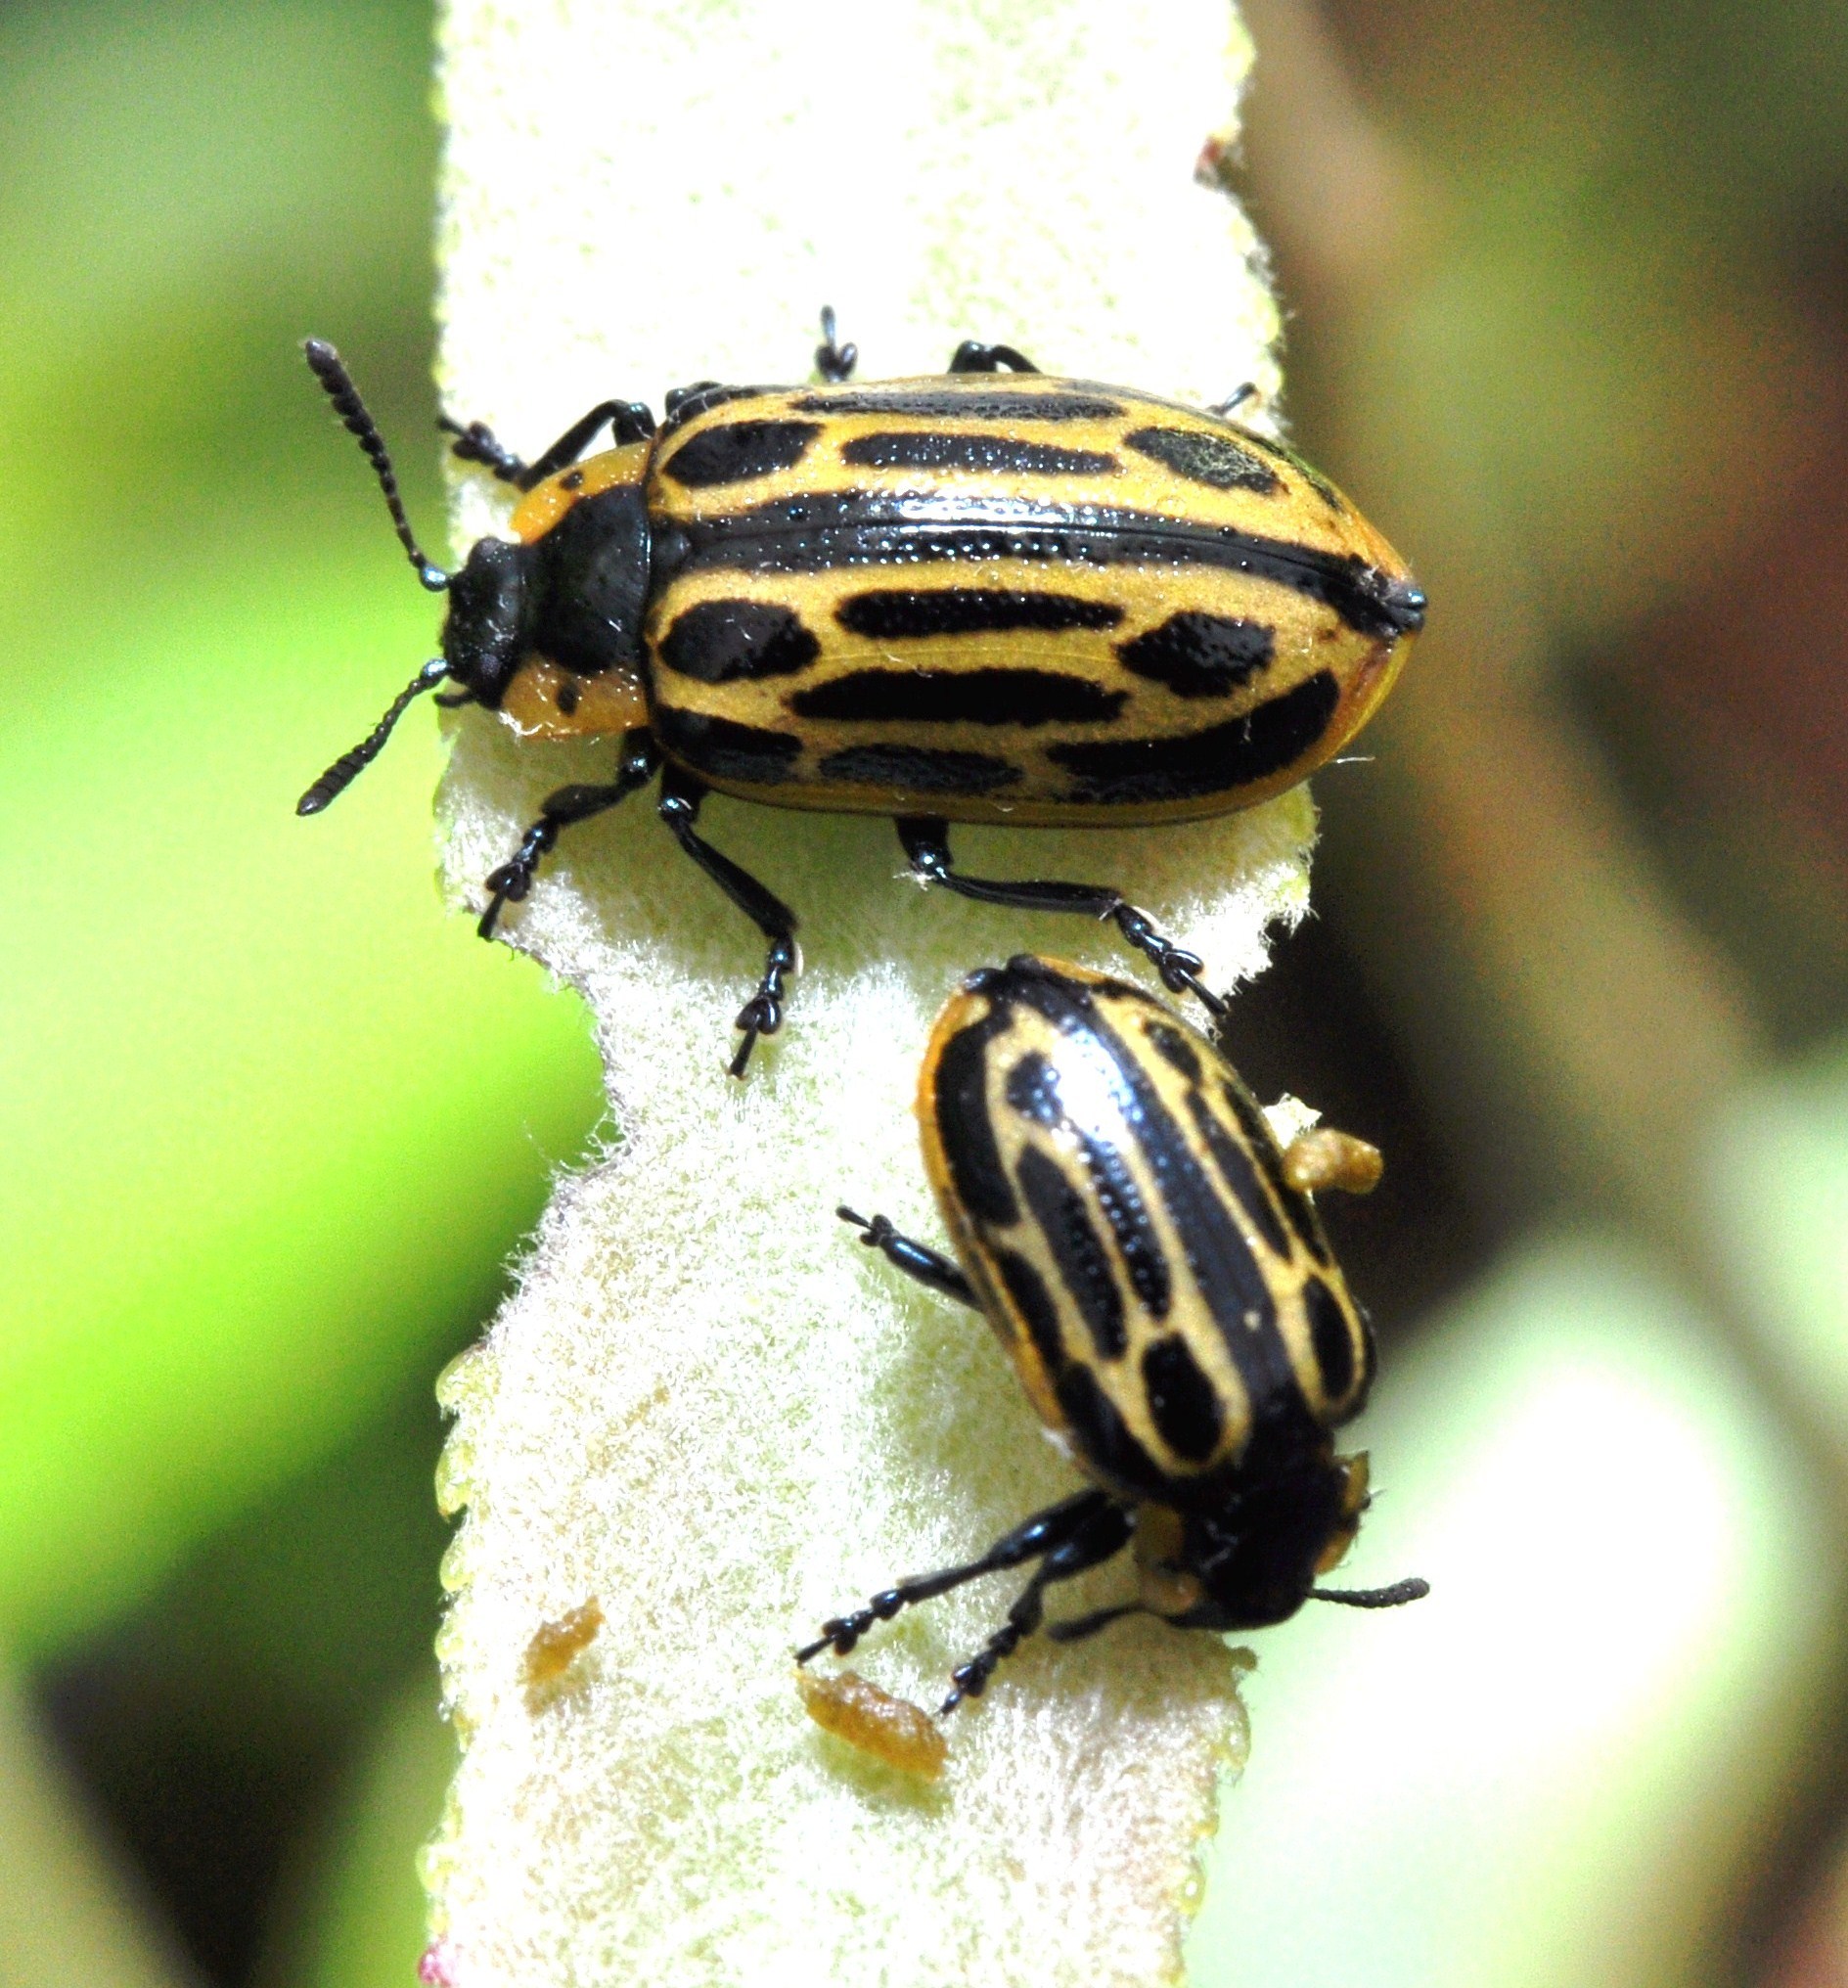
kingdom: Animalia
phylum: Arthropoda
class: Insecta
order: Coleoptera
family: Chrysomelidae
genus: Aethiopocassis
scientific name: Aethiopocassis scripta
